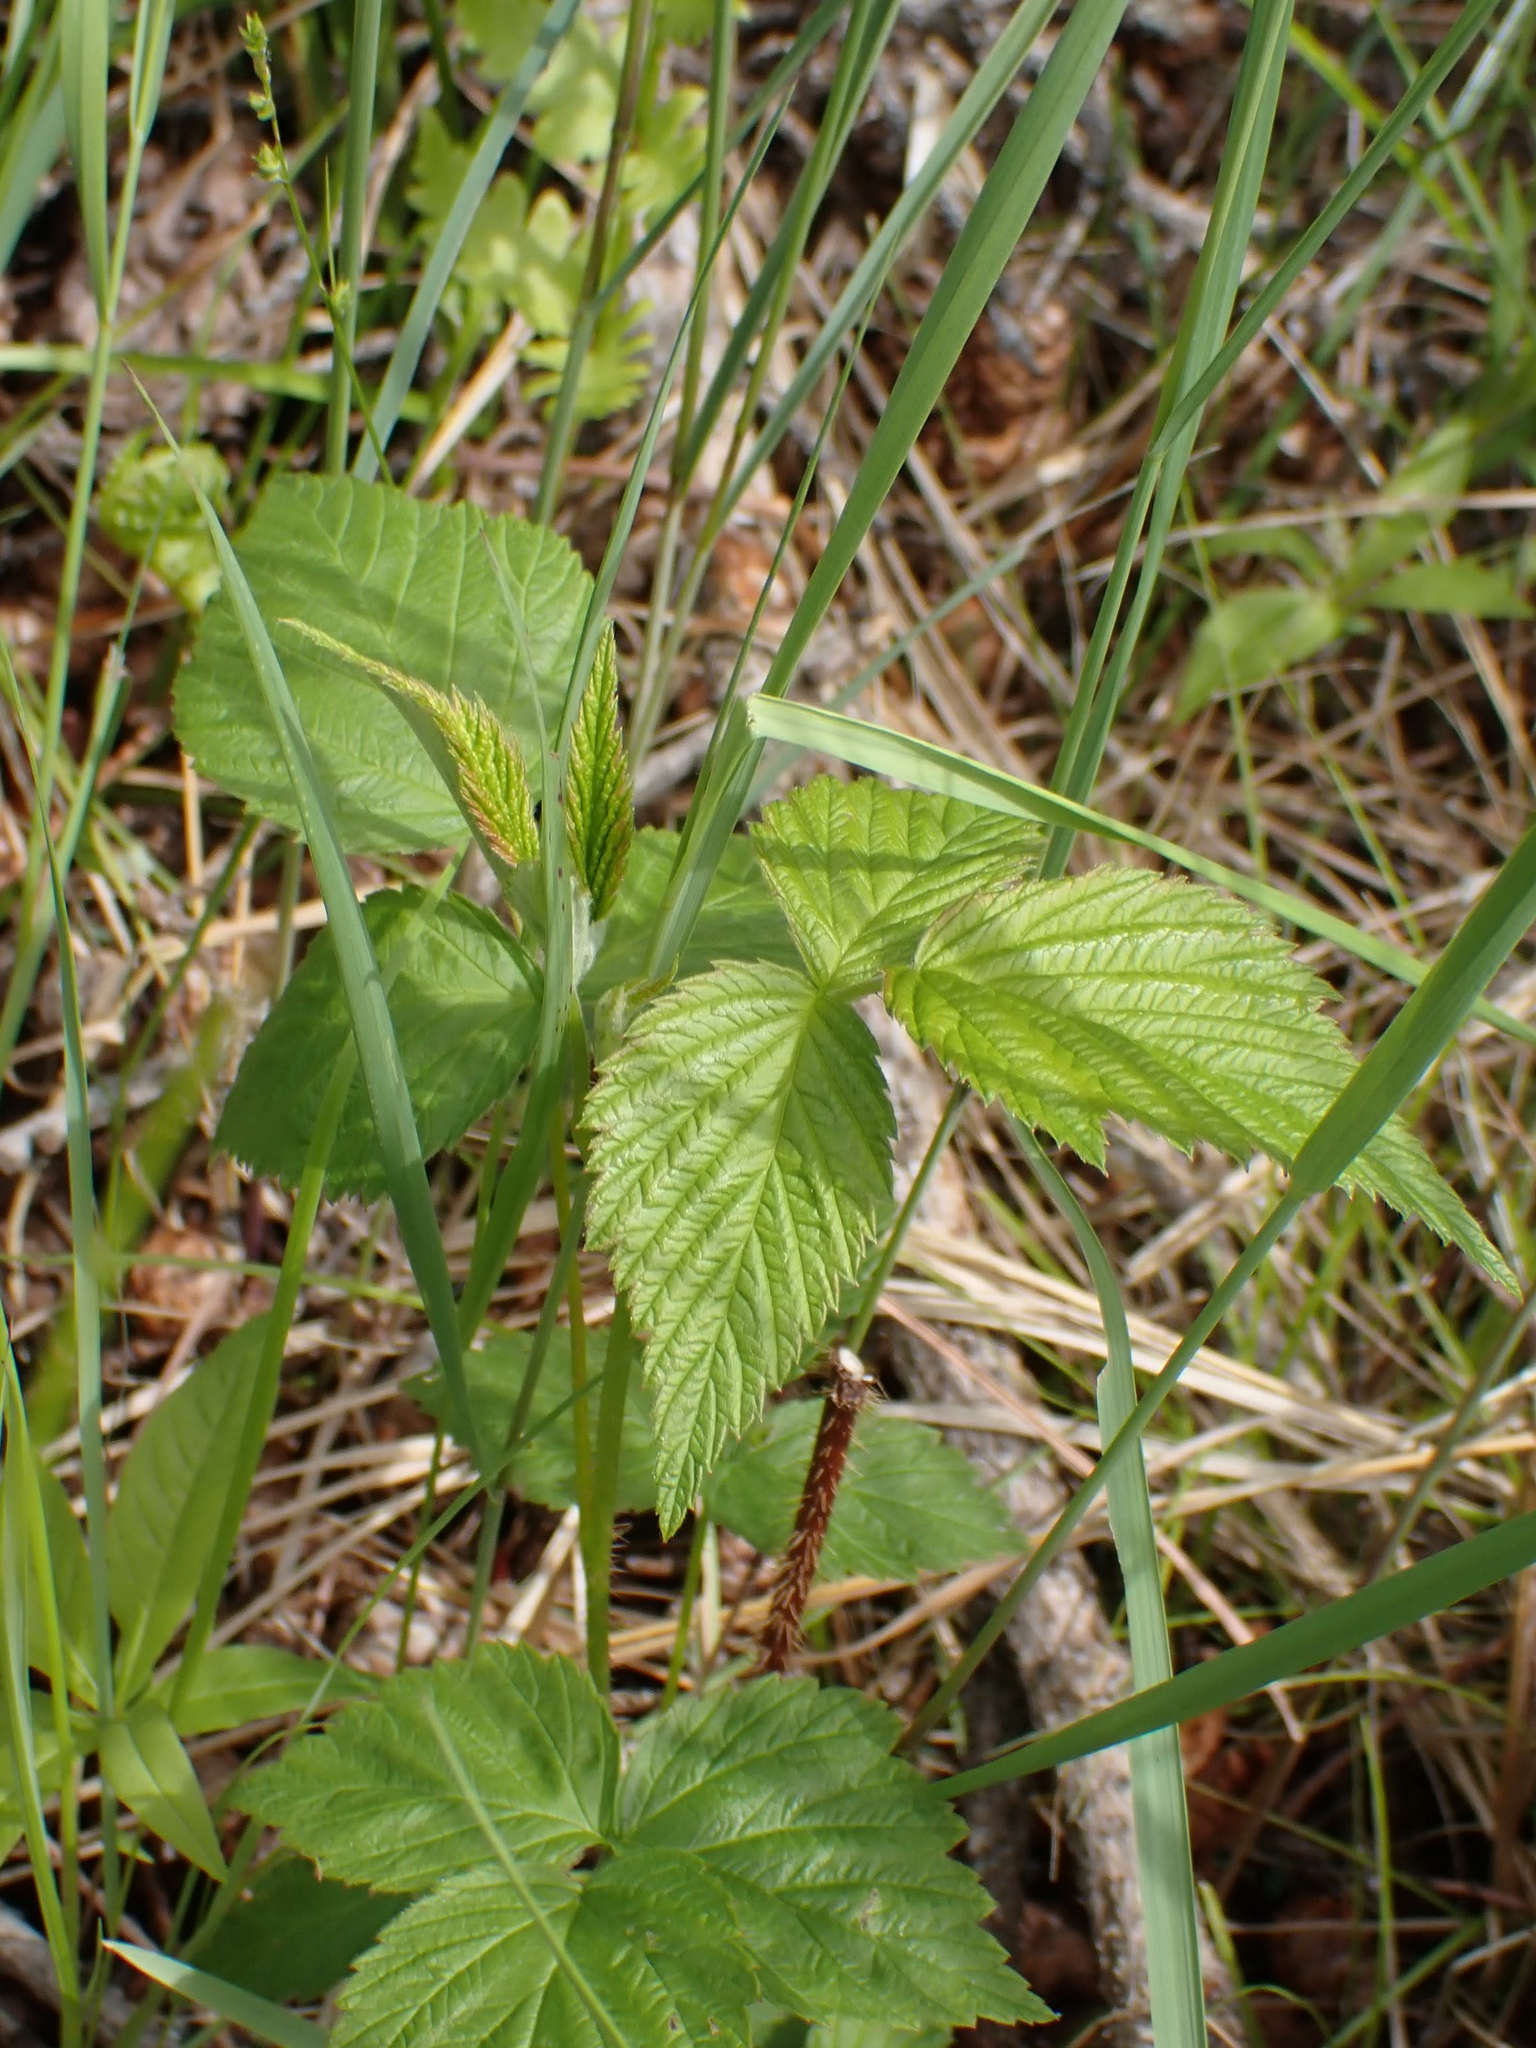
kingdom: Plantae
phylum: Tracheophyta
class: Magnoliopsida
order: Rosales
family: Rosaceae
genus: Rubus
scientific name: Rubus idaeus
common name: Raspberry
